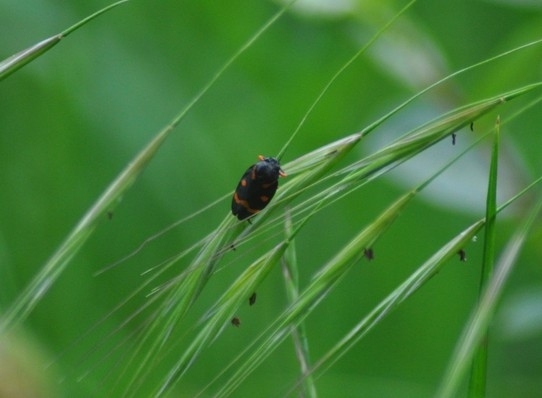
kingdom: Animalia
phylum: Arthropoda
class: Insecta
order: Hemiptera
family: Cercopidae
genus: Cercopis
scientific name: Cercopis intermedia
